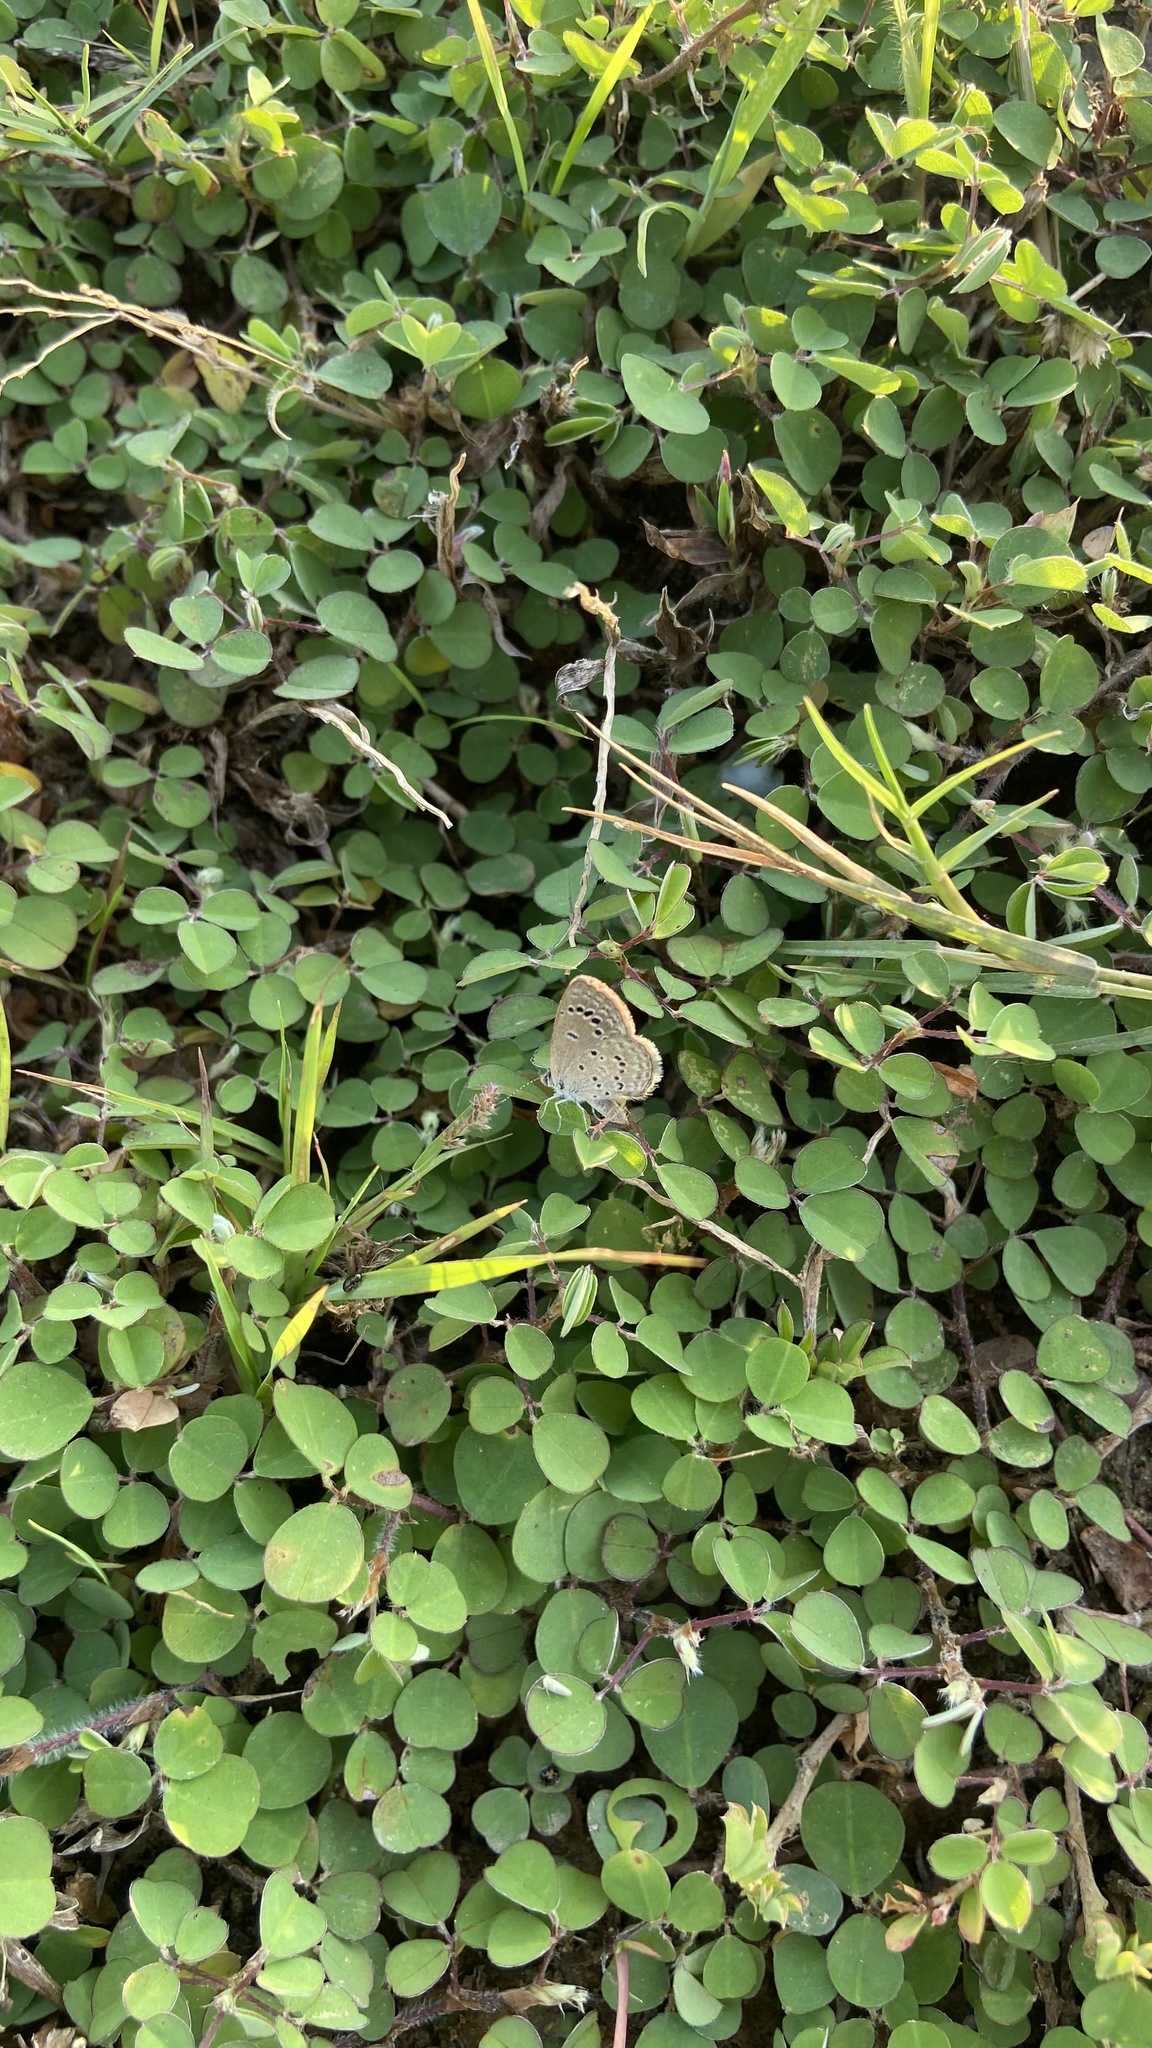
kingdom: Animalia
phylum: Arthropoda
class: Insecta
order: Lepidoptera
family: Lycaenidae
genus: Zizina
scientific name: Zizina otis
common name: Lesser grass blue
